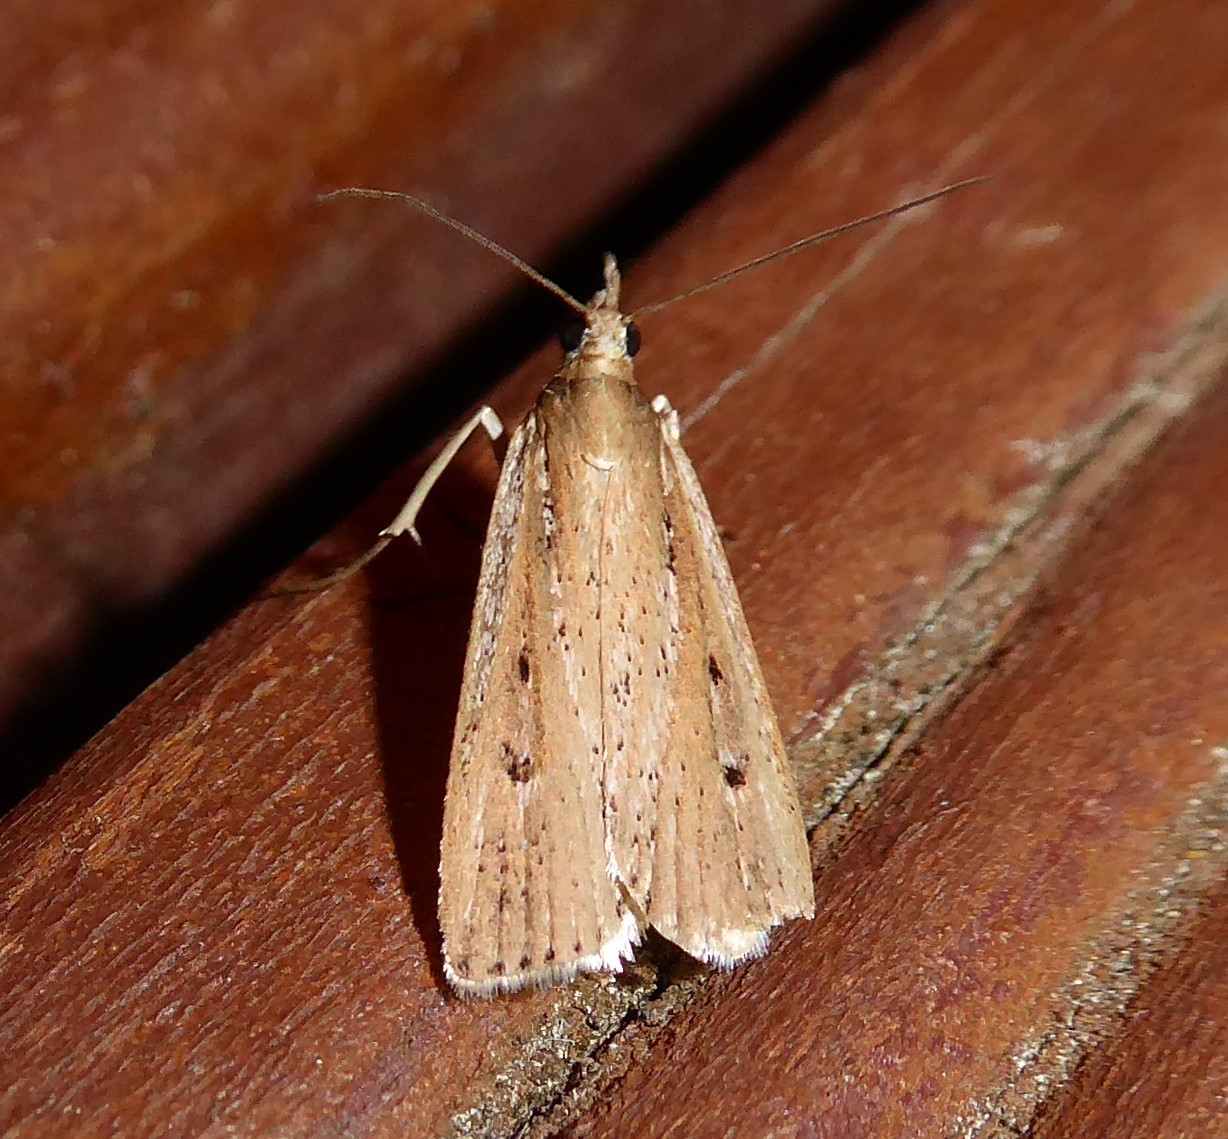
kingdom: Animalia
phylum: Arthropoda
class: Insecta
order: Lepidoptera
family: Crambidae
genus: Eudonia
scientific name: Eudonia sabulosella
